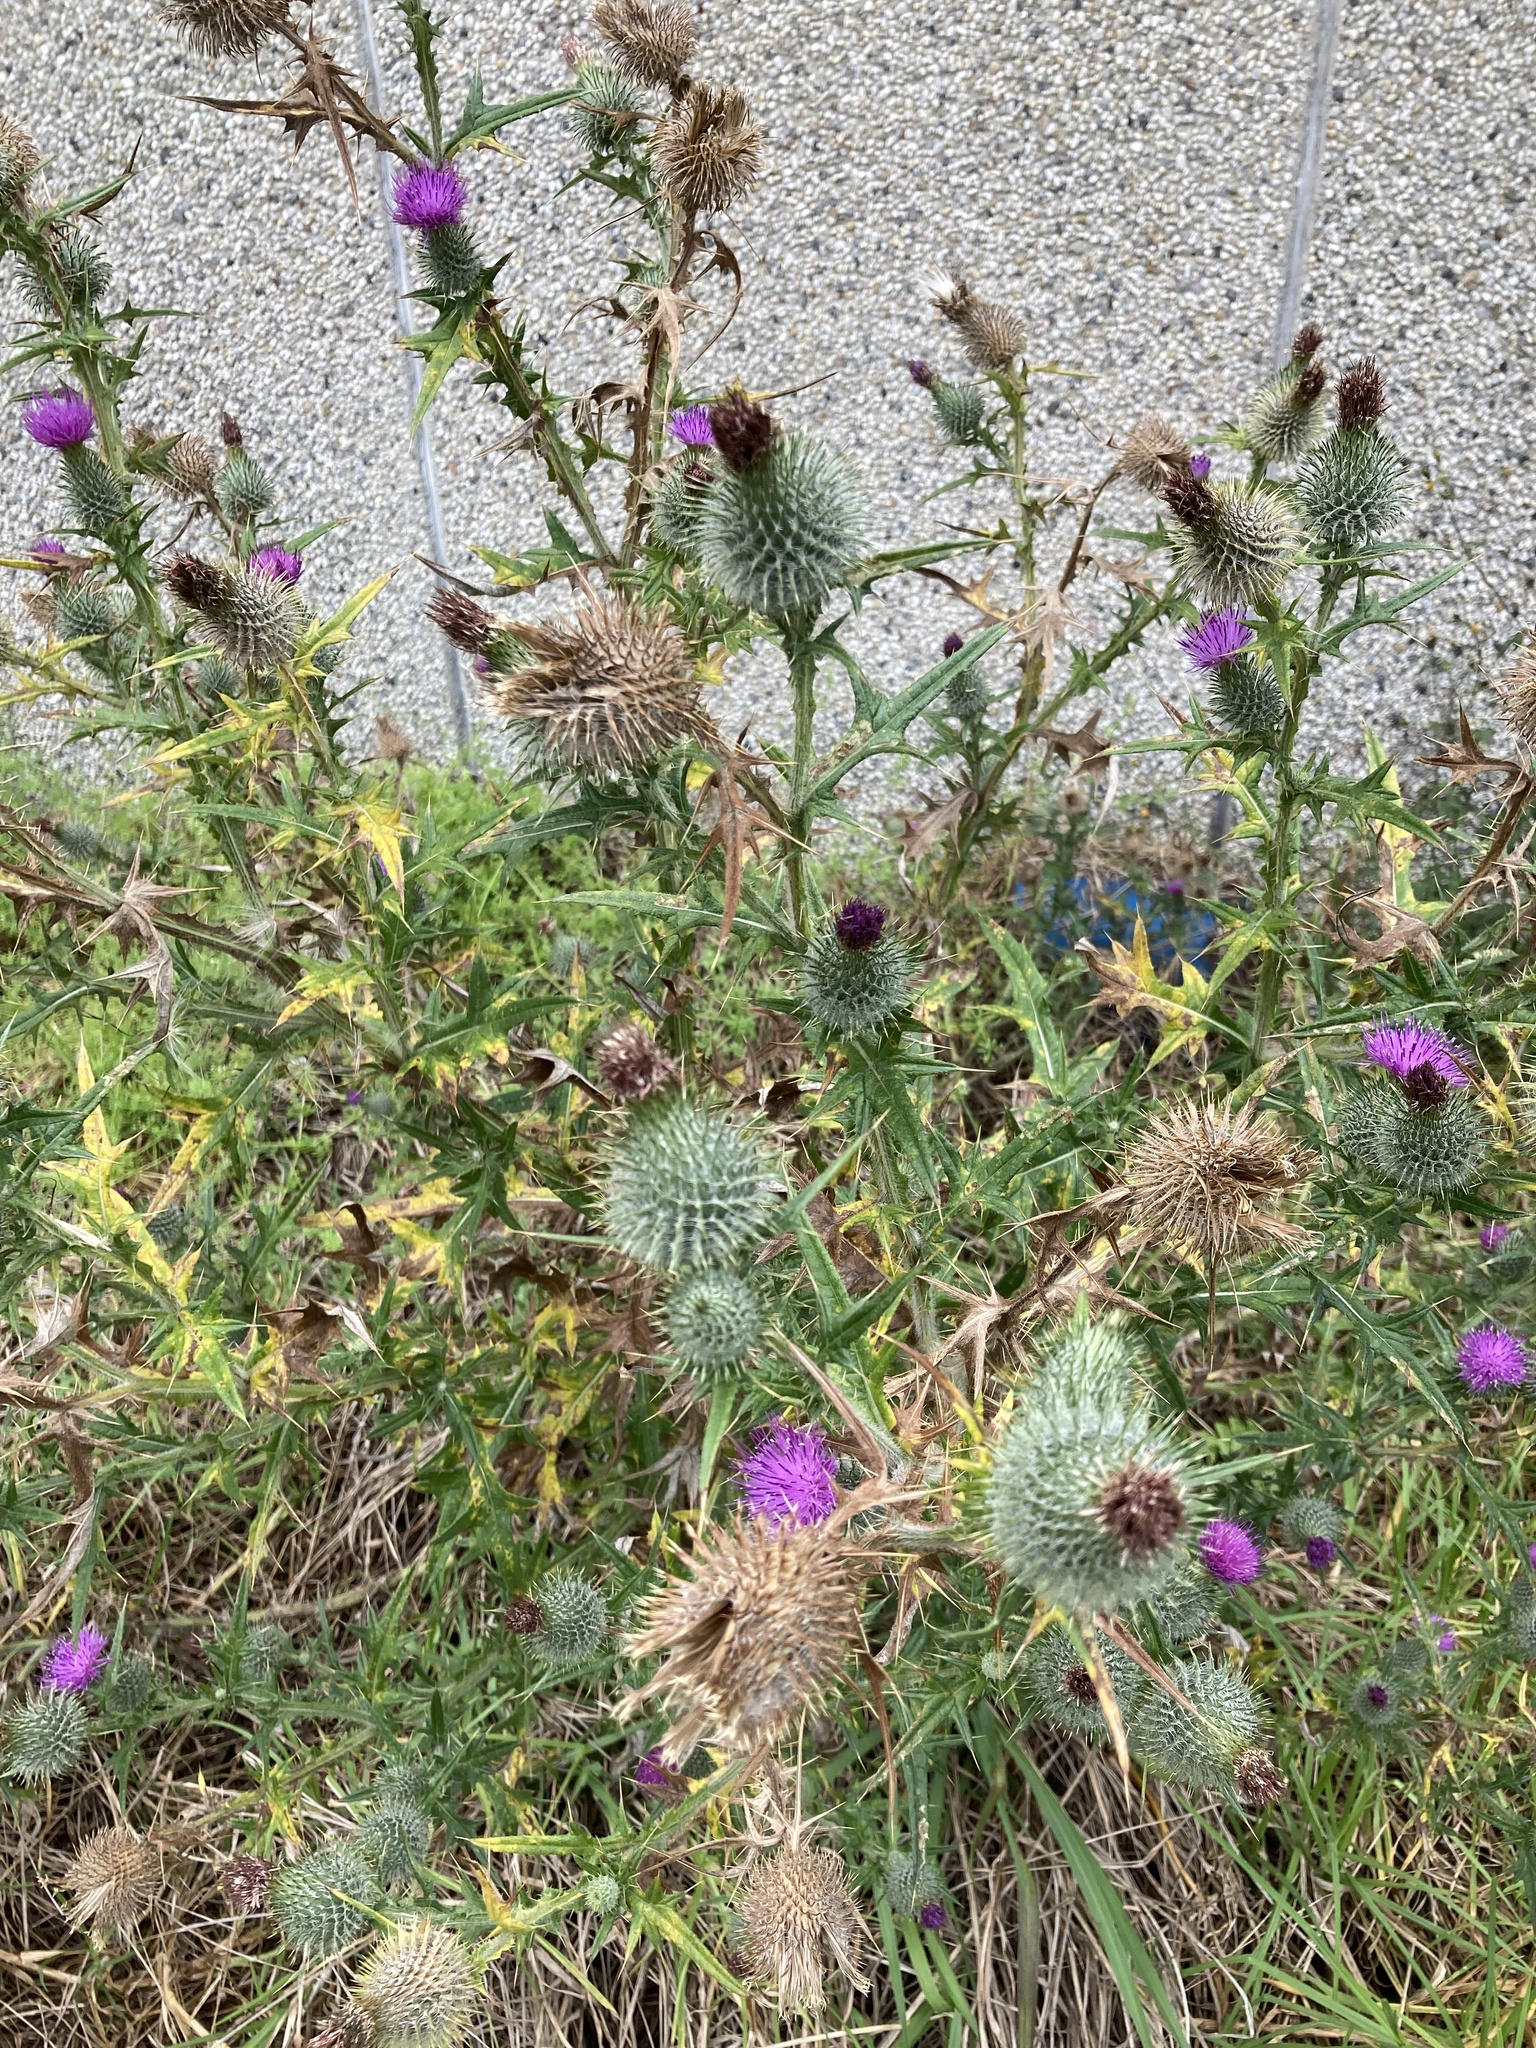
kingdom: Plantae
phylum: Tracheophyta
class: Magnoliopsida
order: Asterales
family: Asteraceae
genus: Cirsium
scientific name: Cirsium vulgare
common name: Bull thistle
